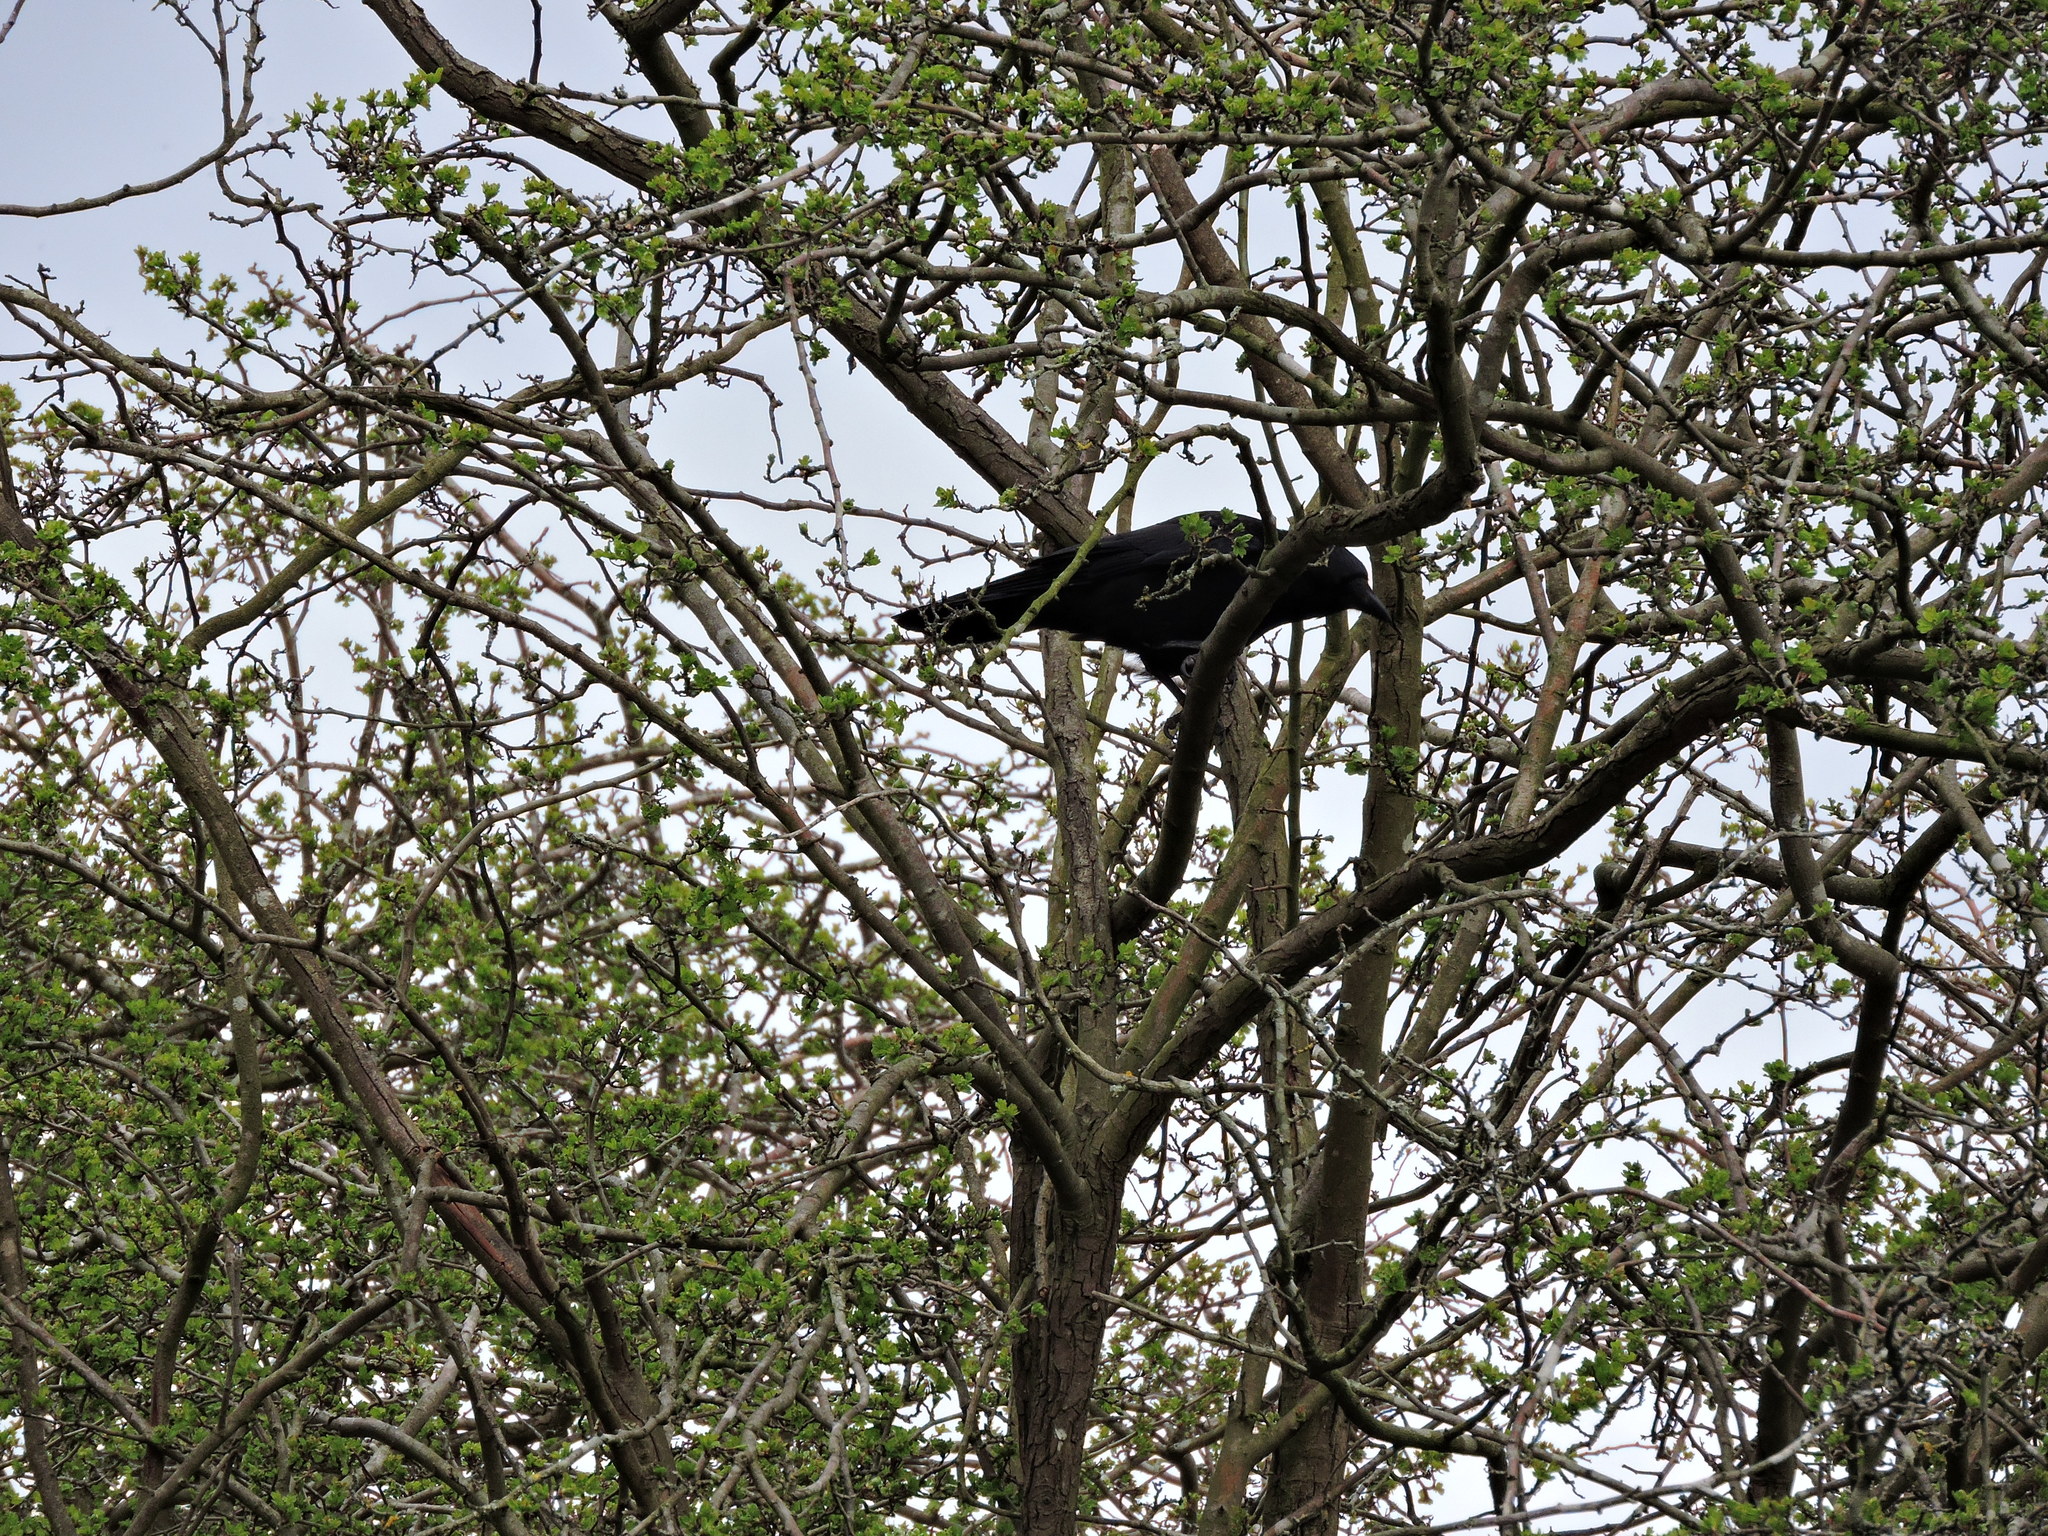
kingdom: Animalia
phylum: Chordata
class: Aves
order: Passeriformes
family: Corvidae
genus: Corvus
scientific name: Corvus corone
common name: Carrion crow
